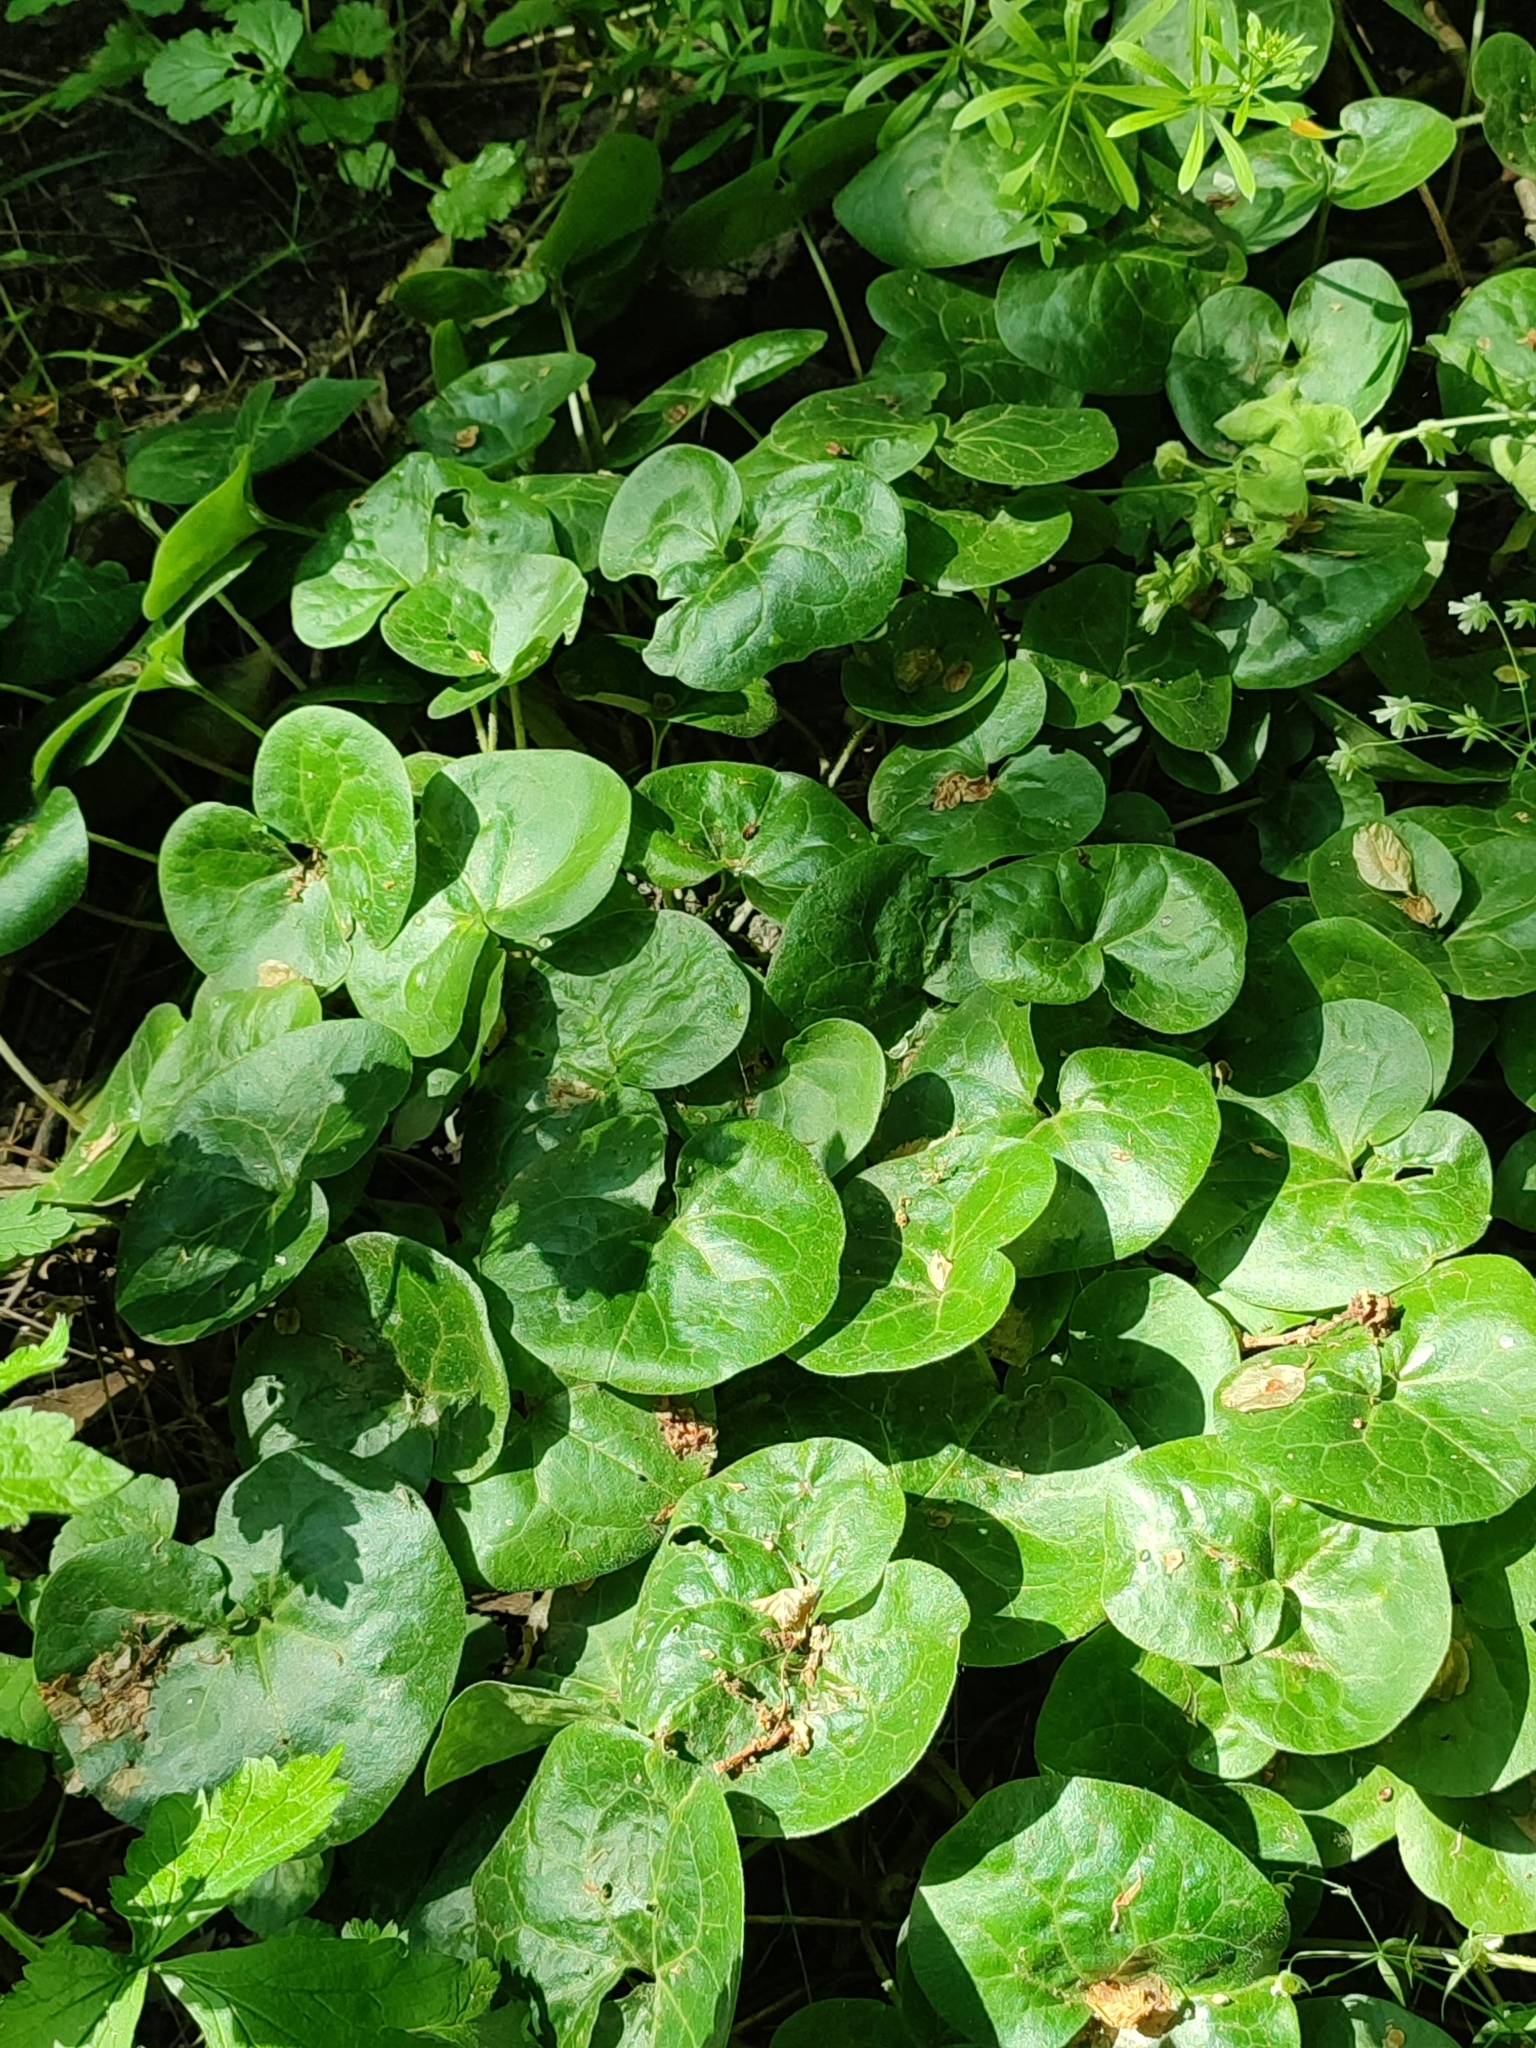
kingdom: Plantae
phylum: Tracheophyta
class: Magnoliopsida
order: Piperales
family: Aristolochiaceae
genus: Asarum
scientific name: Asarum europaeum
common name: Asarabacca
